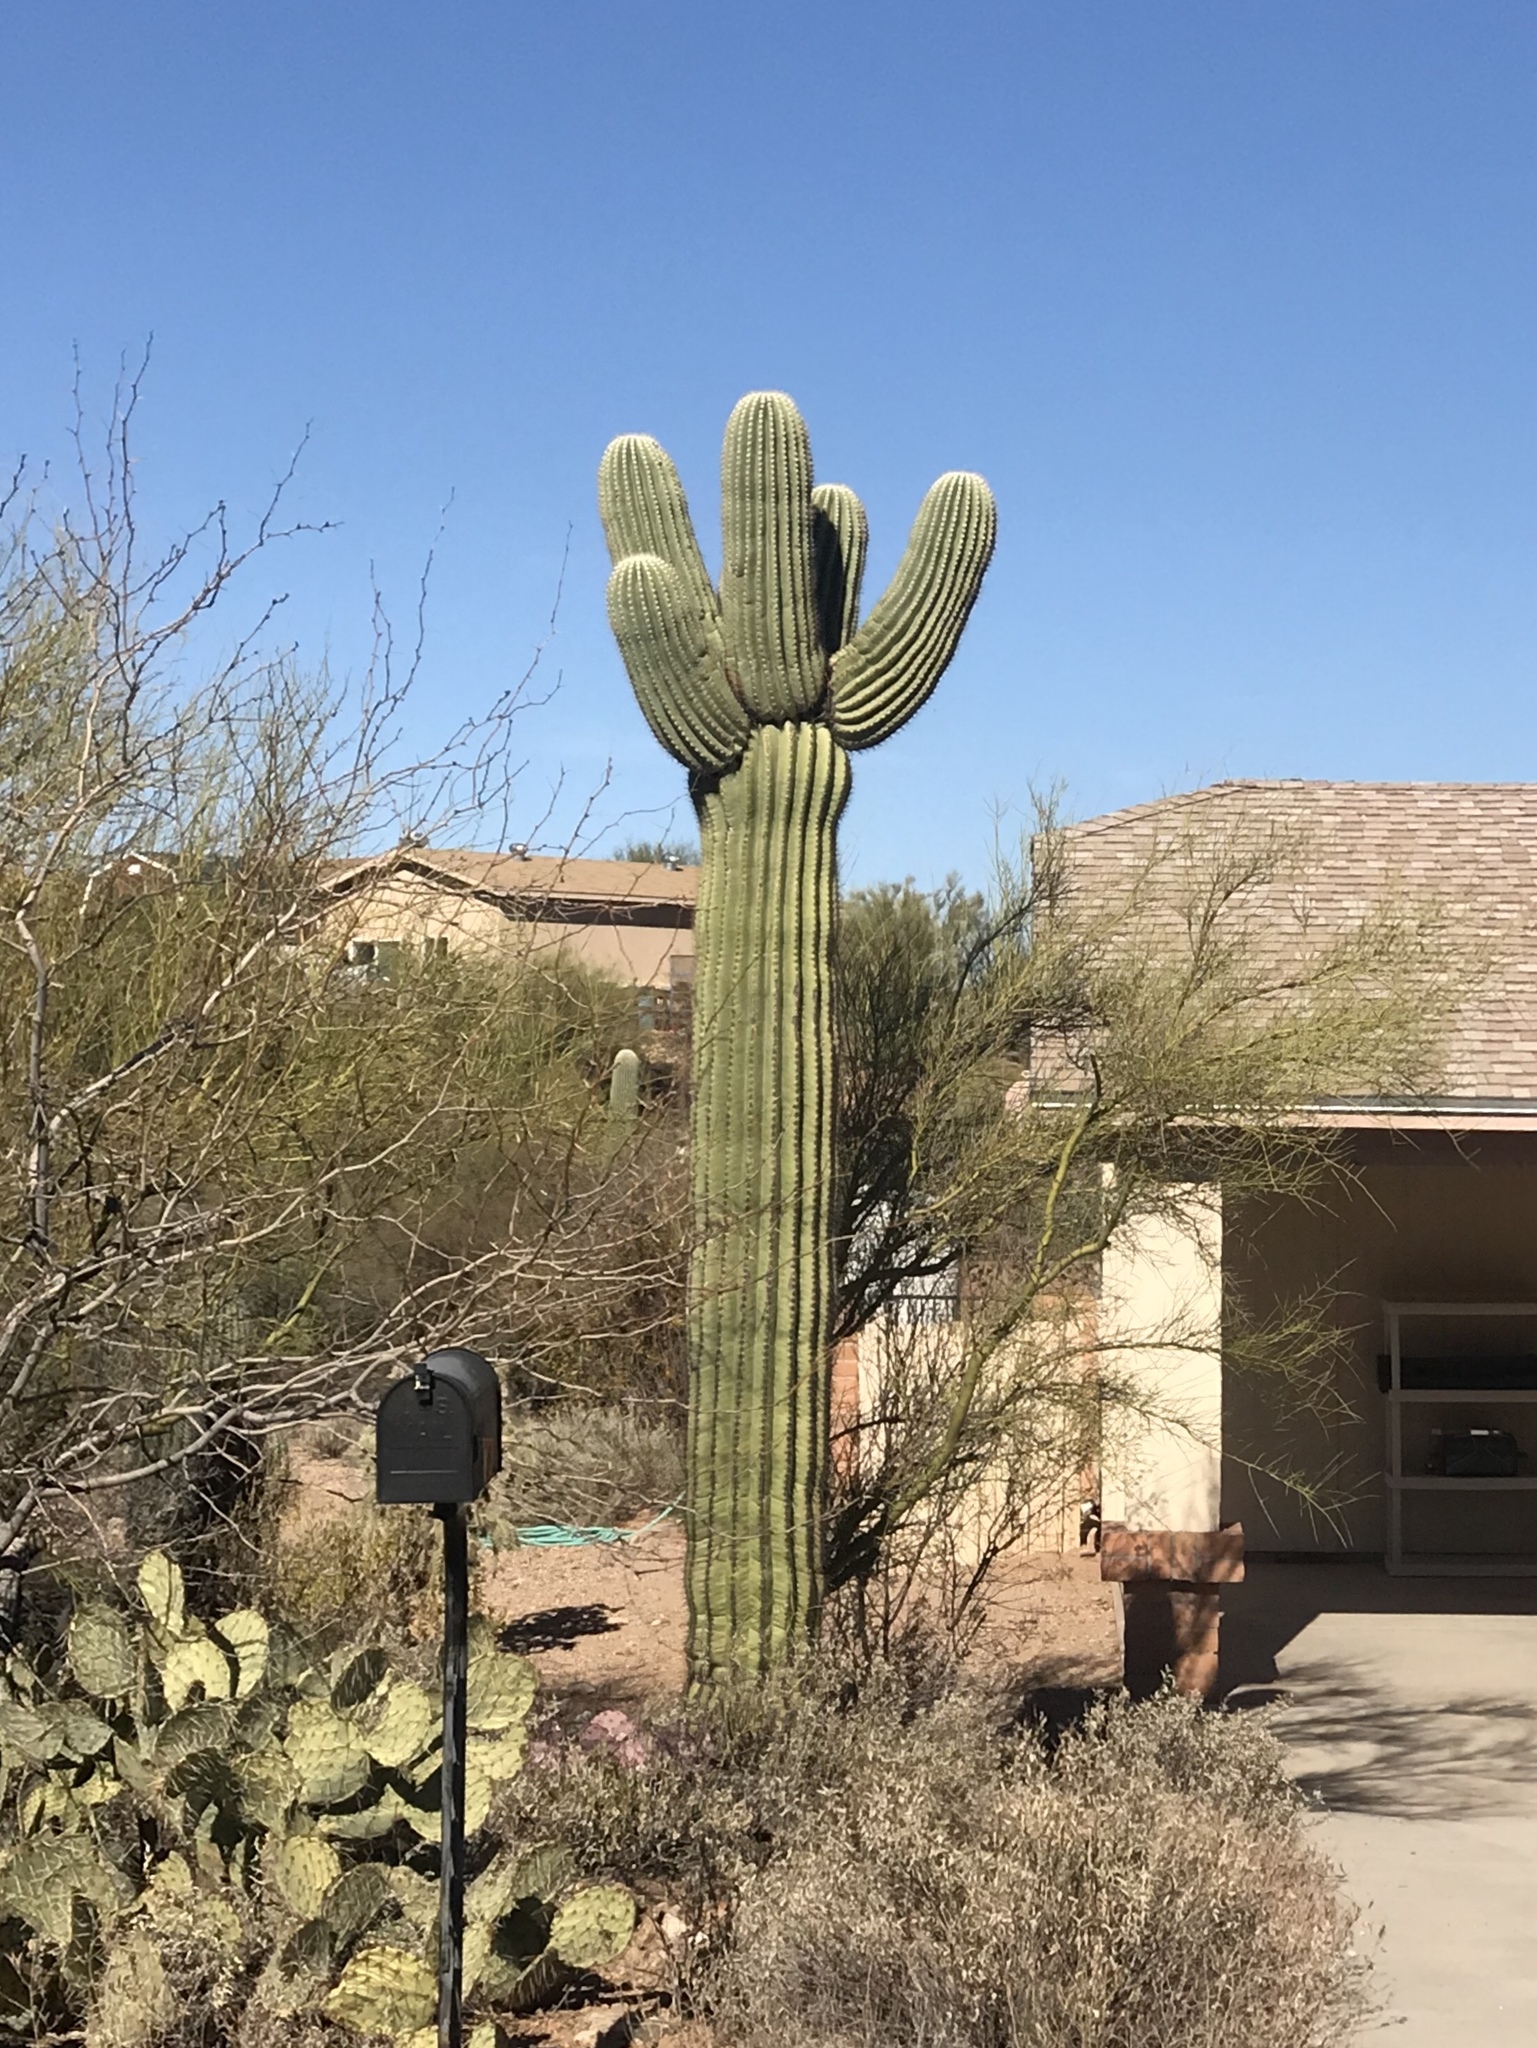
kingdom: Plantae
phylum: Tracheophyta
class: Magnoliopsida
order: Caryophyllales
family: Cactaceae
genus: Carnegiea
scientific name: Carnegiea gigantea
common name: Saguaro
